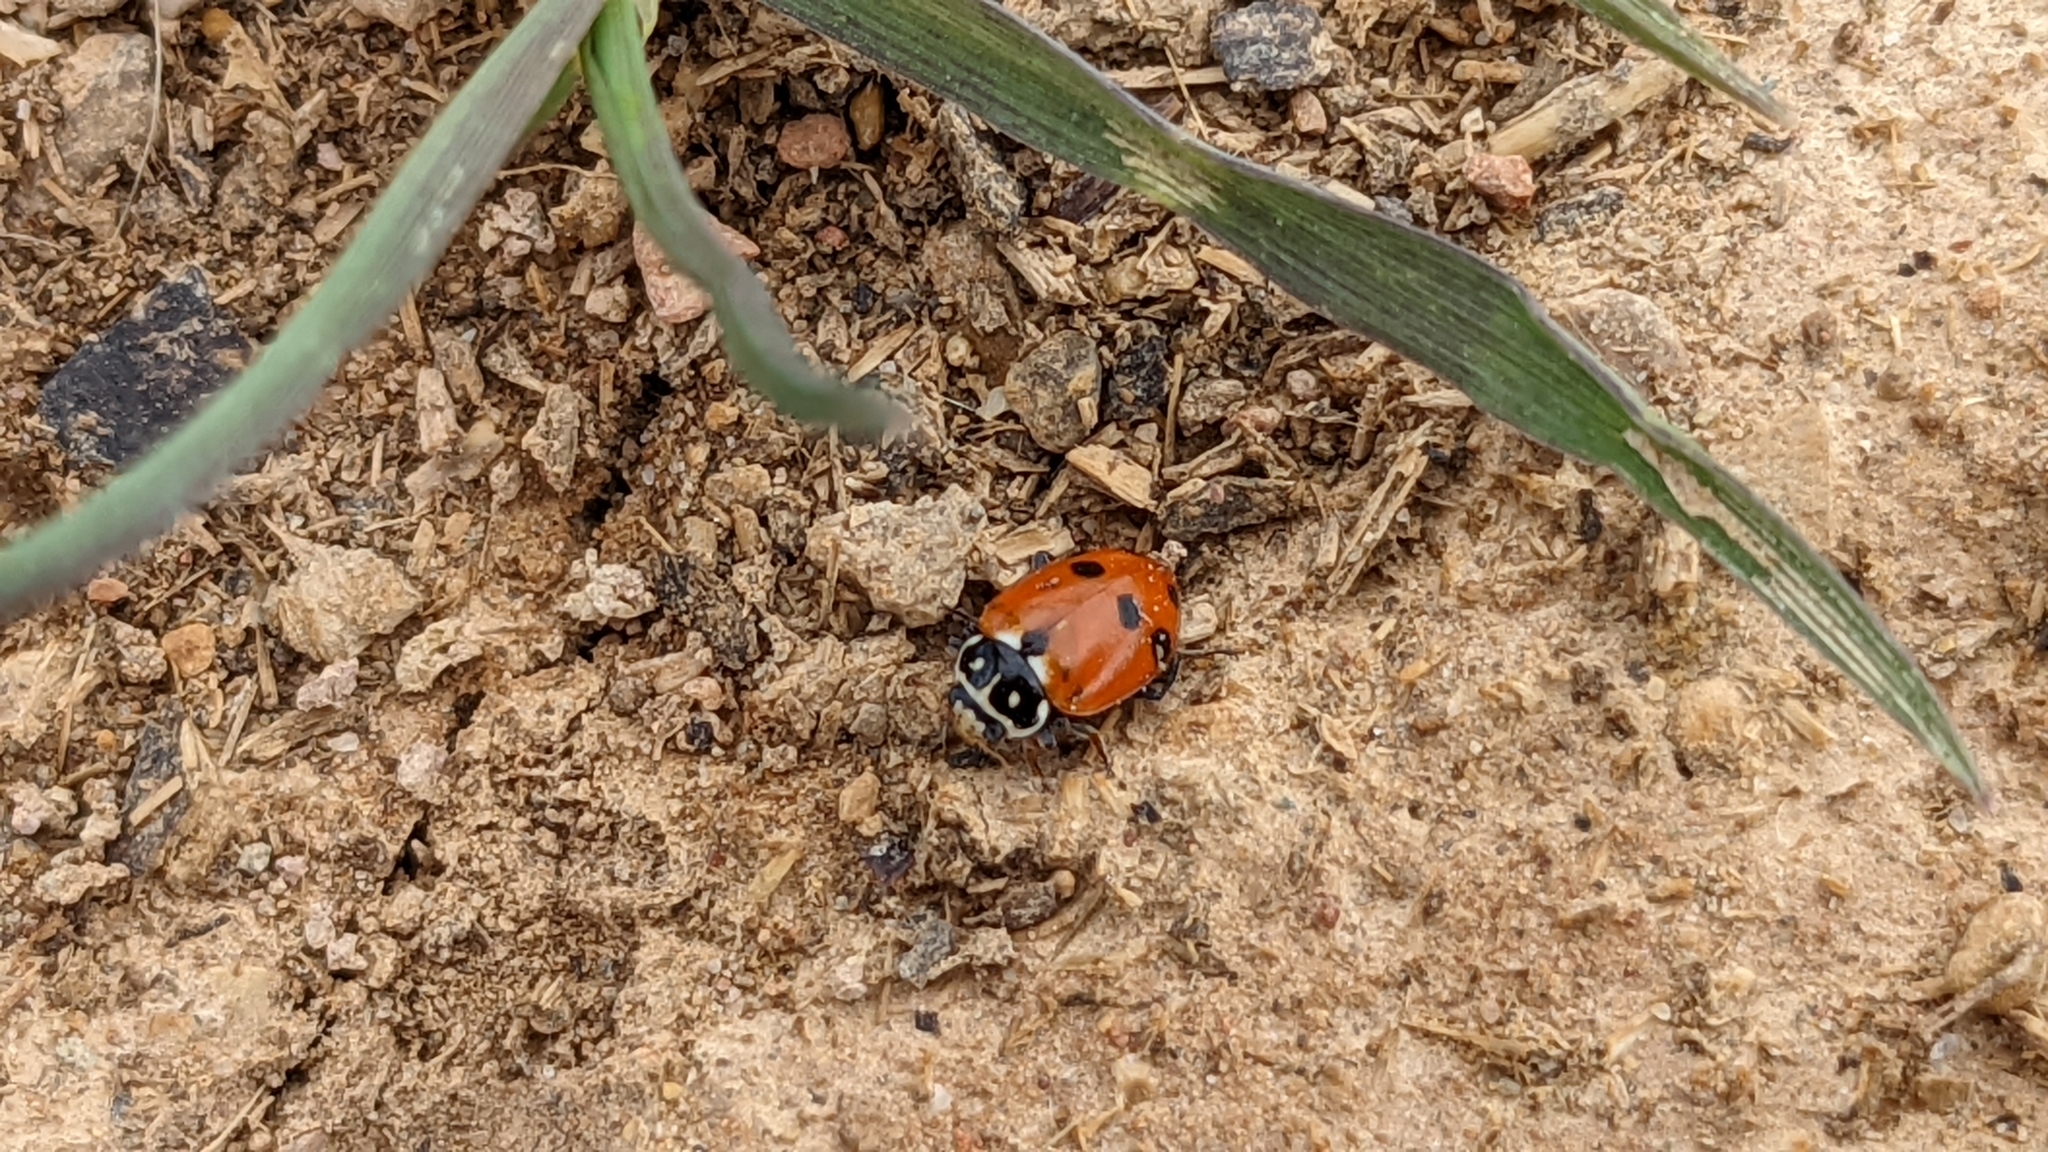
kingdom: Animalia
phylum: Arthropoda
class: Insecta
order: Coleoptera
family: Coccinellidae
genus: Hippodamia
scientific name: Hippodamia variegata
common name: Ladybird beetle
